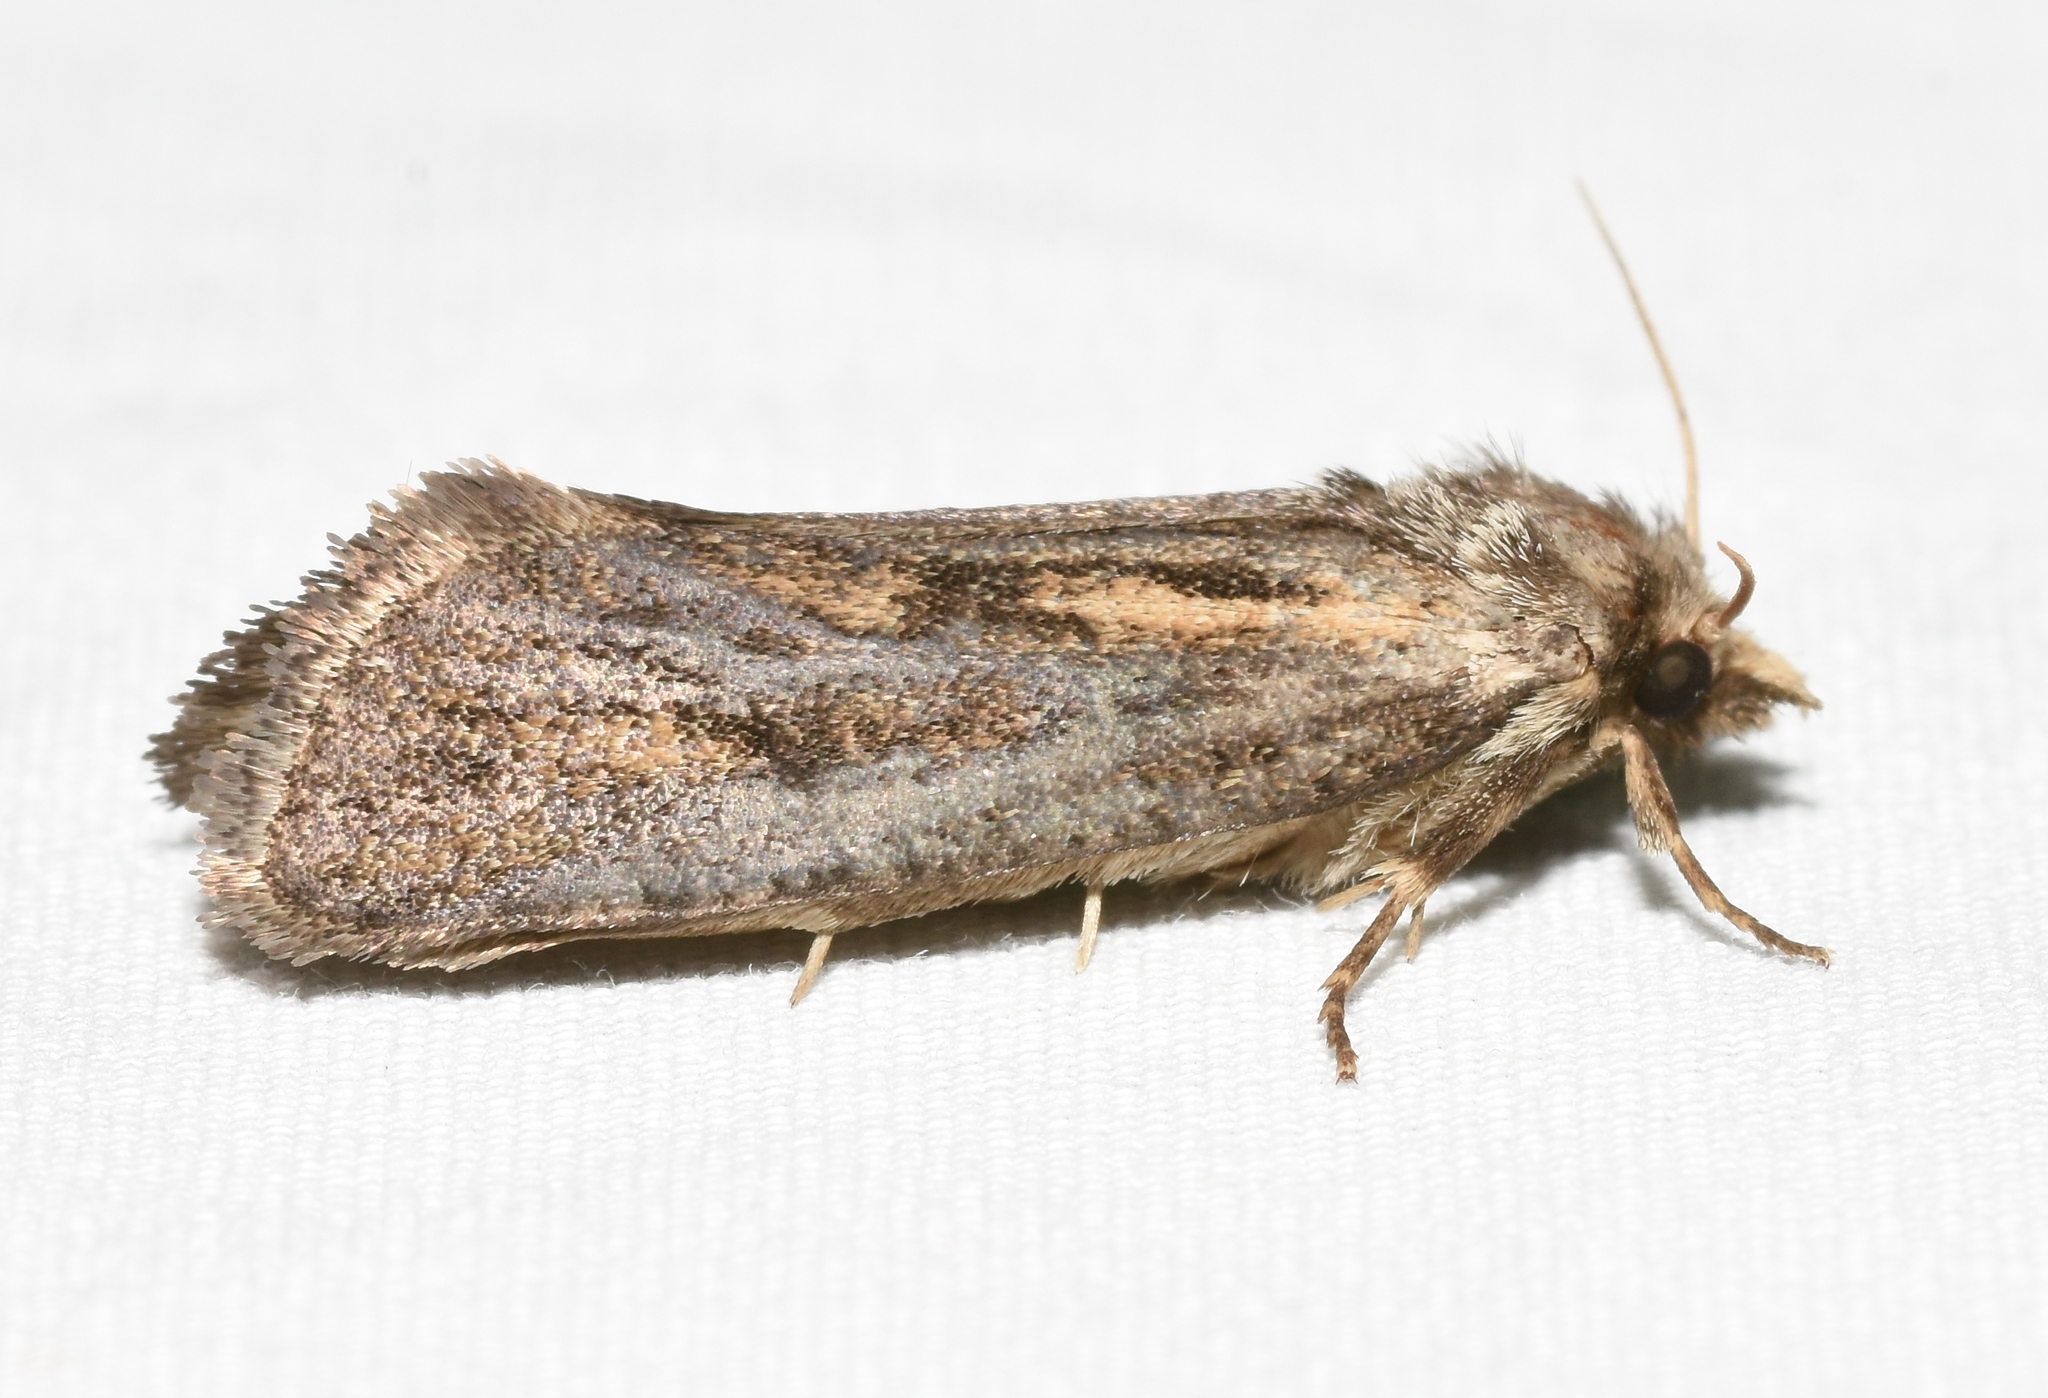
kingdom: Animalia
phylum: Arthropoda
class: Insecta
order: Lepidoptera
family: Tineidae
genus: Acrolophus
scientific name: Acrolophus popeanella
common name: Clemens' grass tubeworm moth
